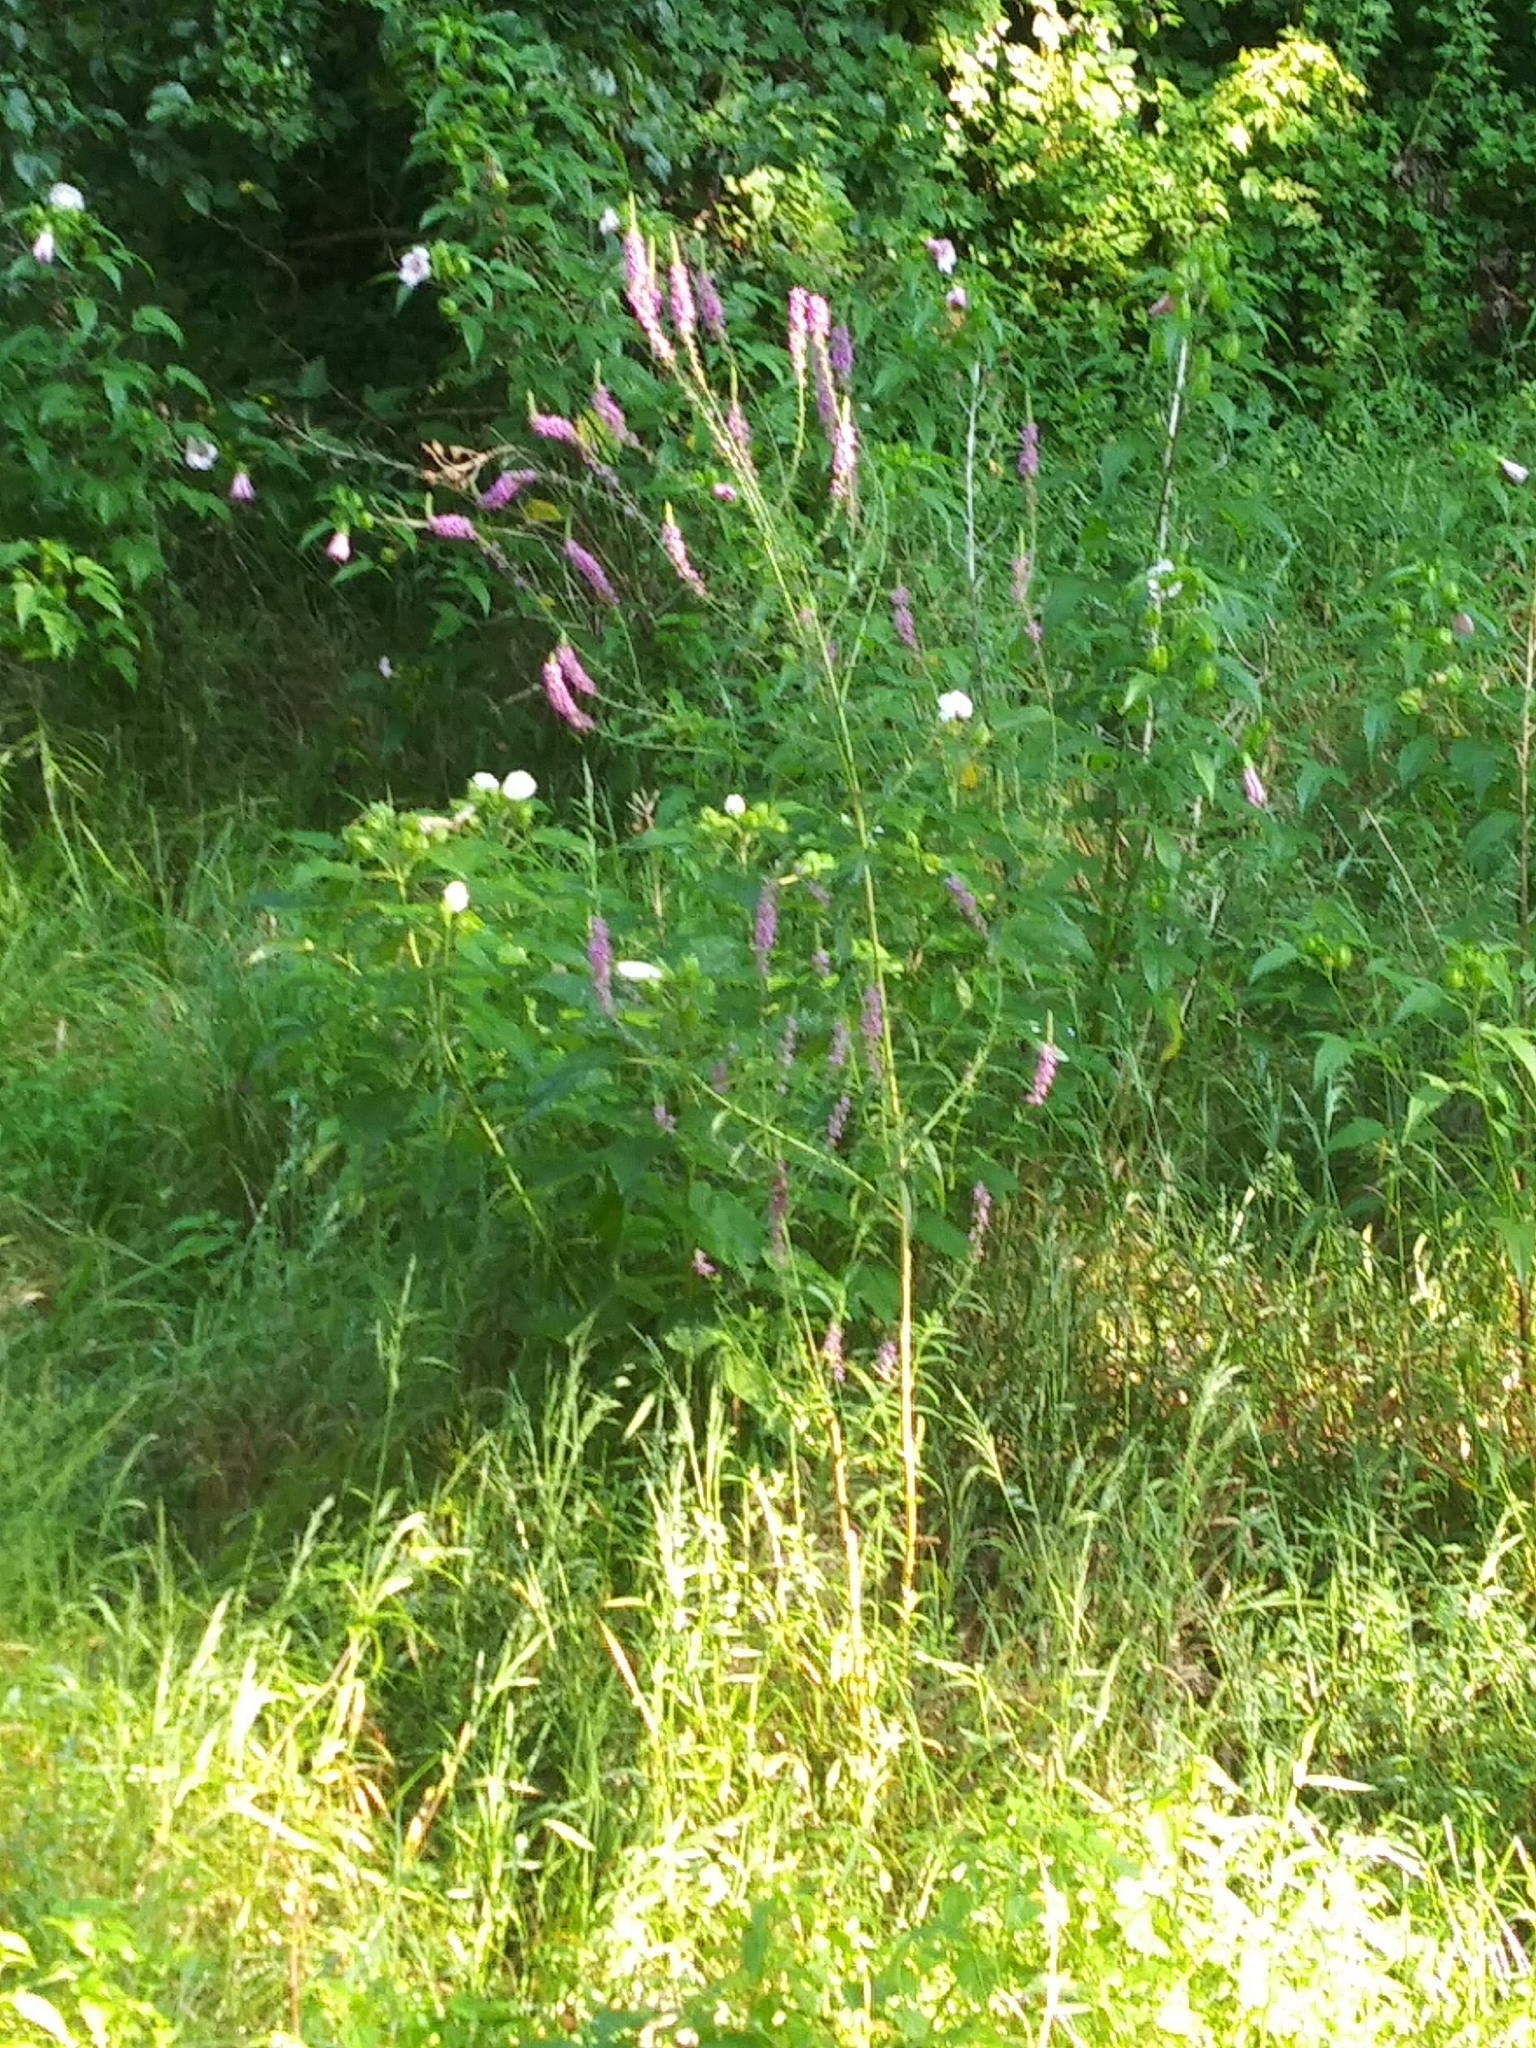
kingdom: Plantae
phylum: Tracheophyta
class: Magnoliopsida
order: Myrtales
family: Lythraceae
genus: Lythrum
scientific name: Lythrum salicaria
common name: Purple loosestrife
